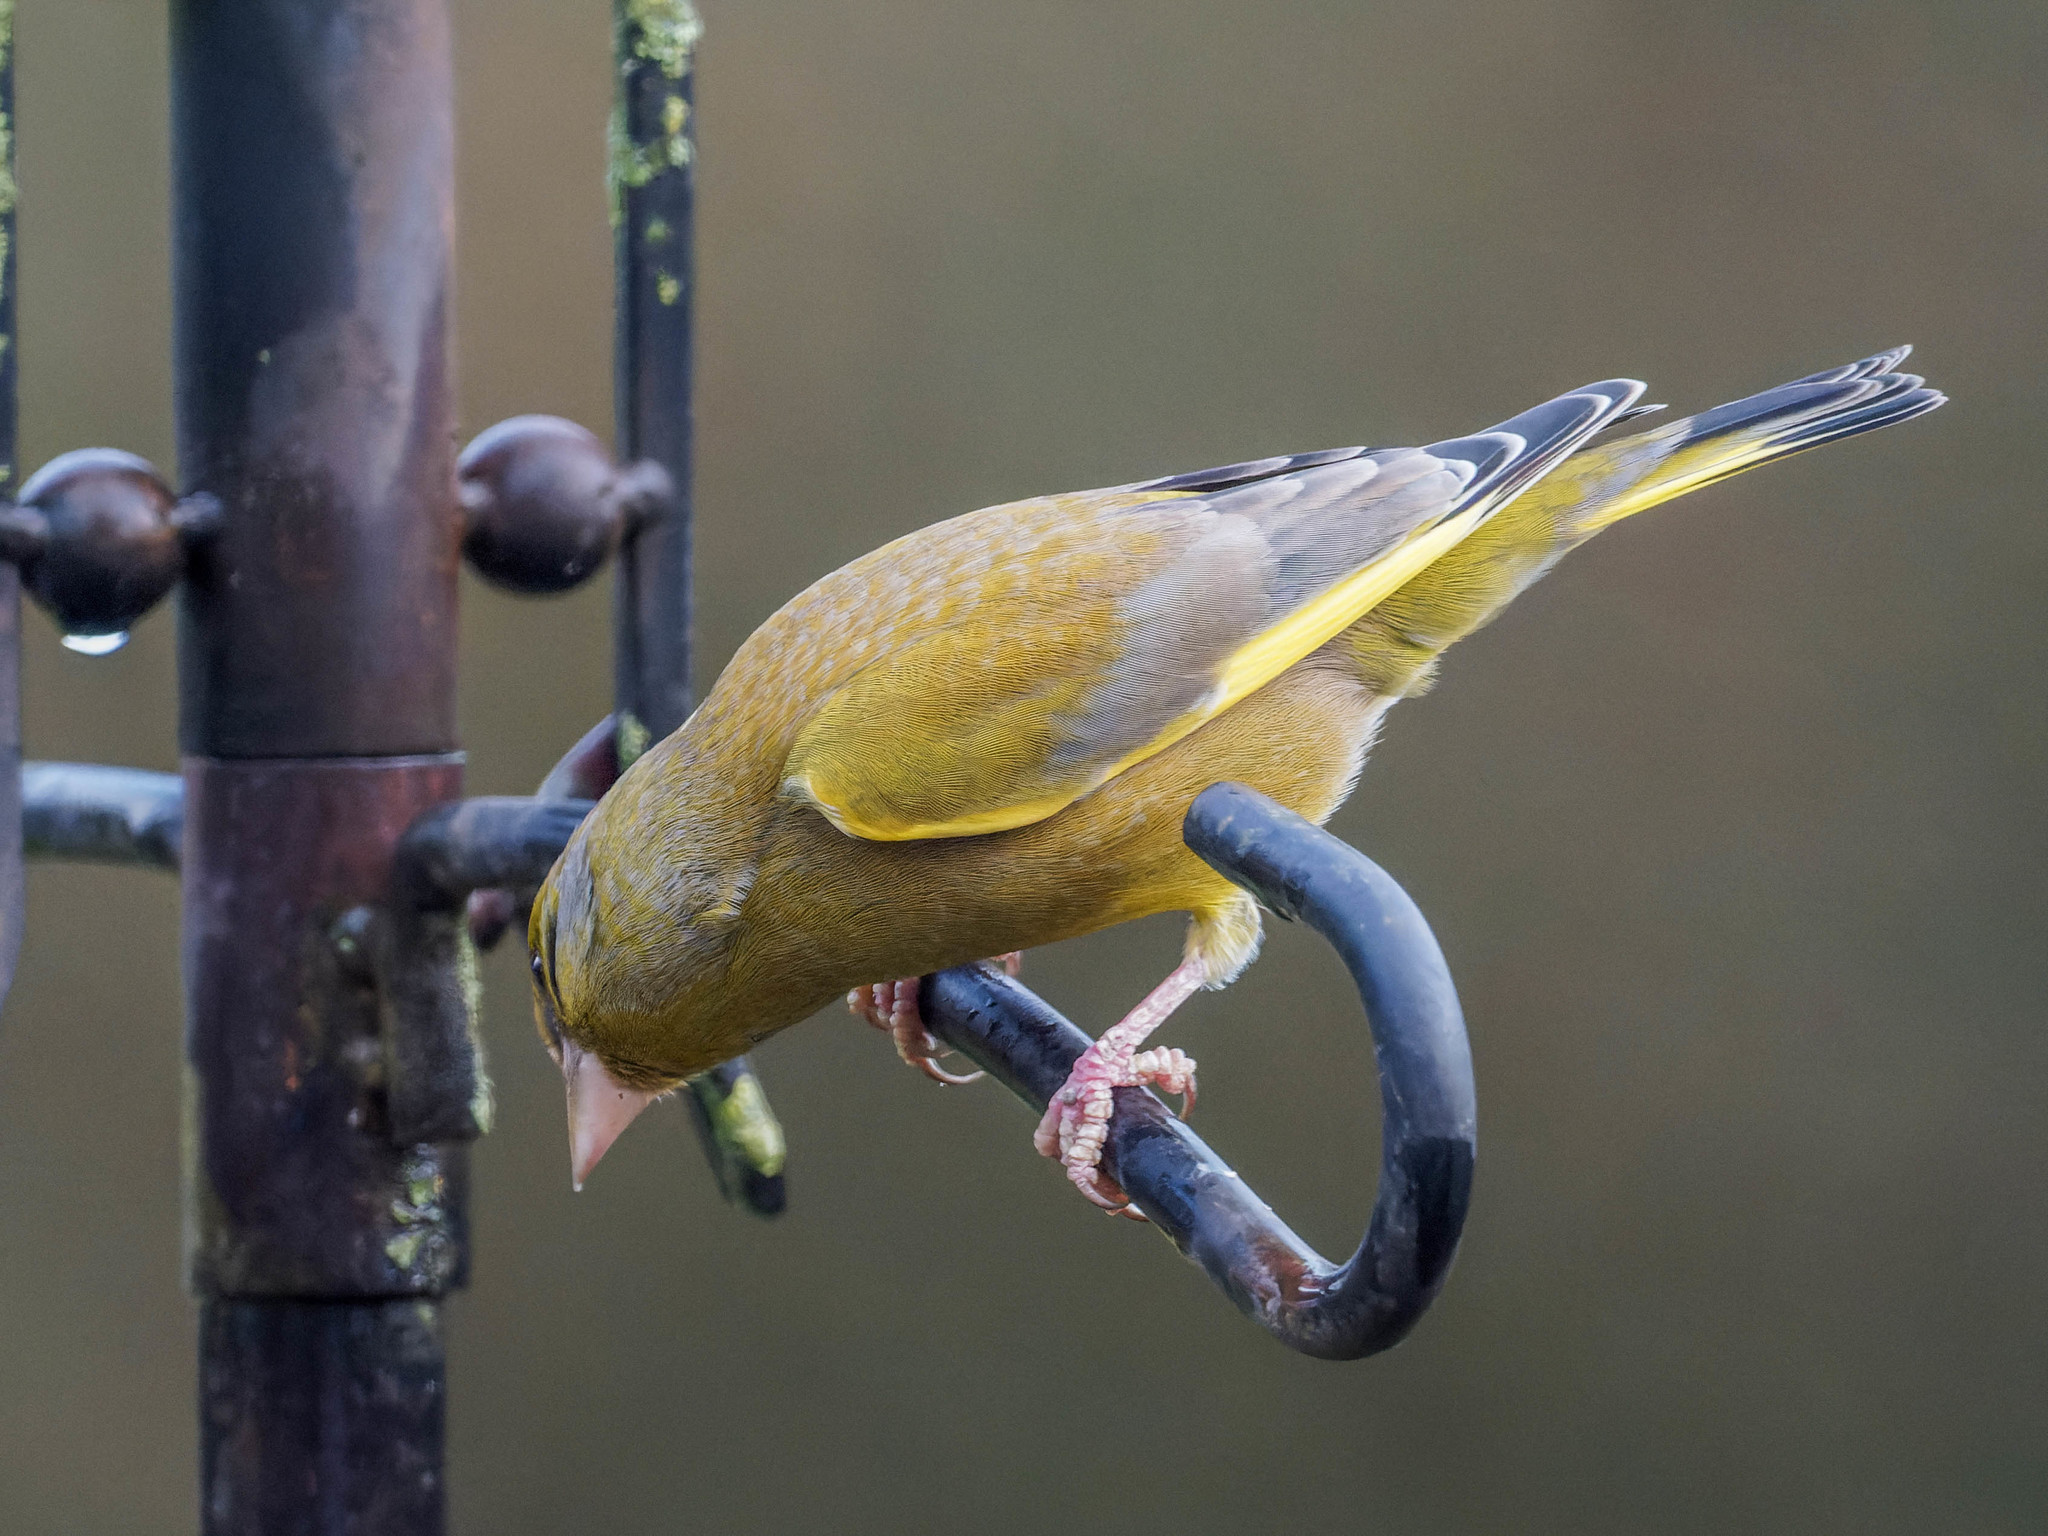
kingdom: Plantae
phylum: Tracheophyta
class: Liliopsida
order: Poales
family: Poaceae
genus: Chloris
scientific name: Chloris chloris
